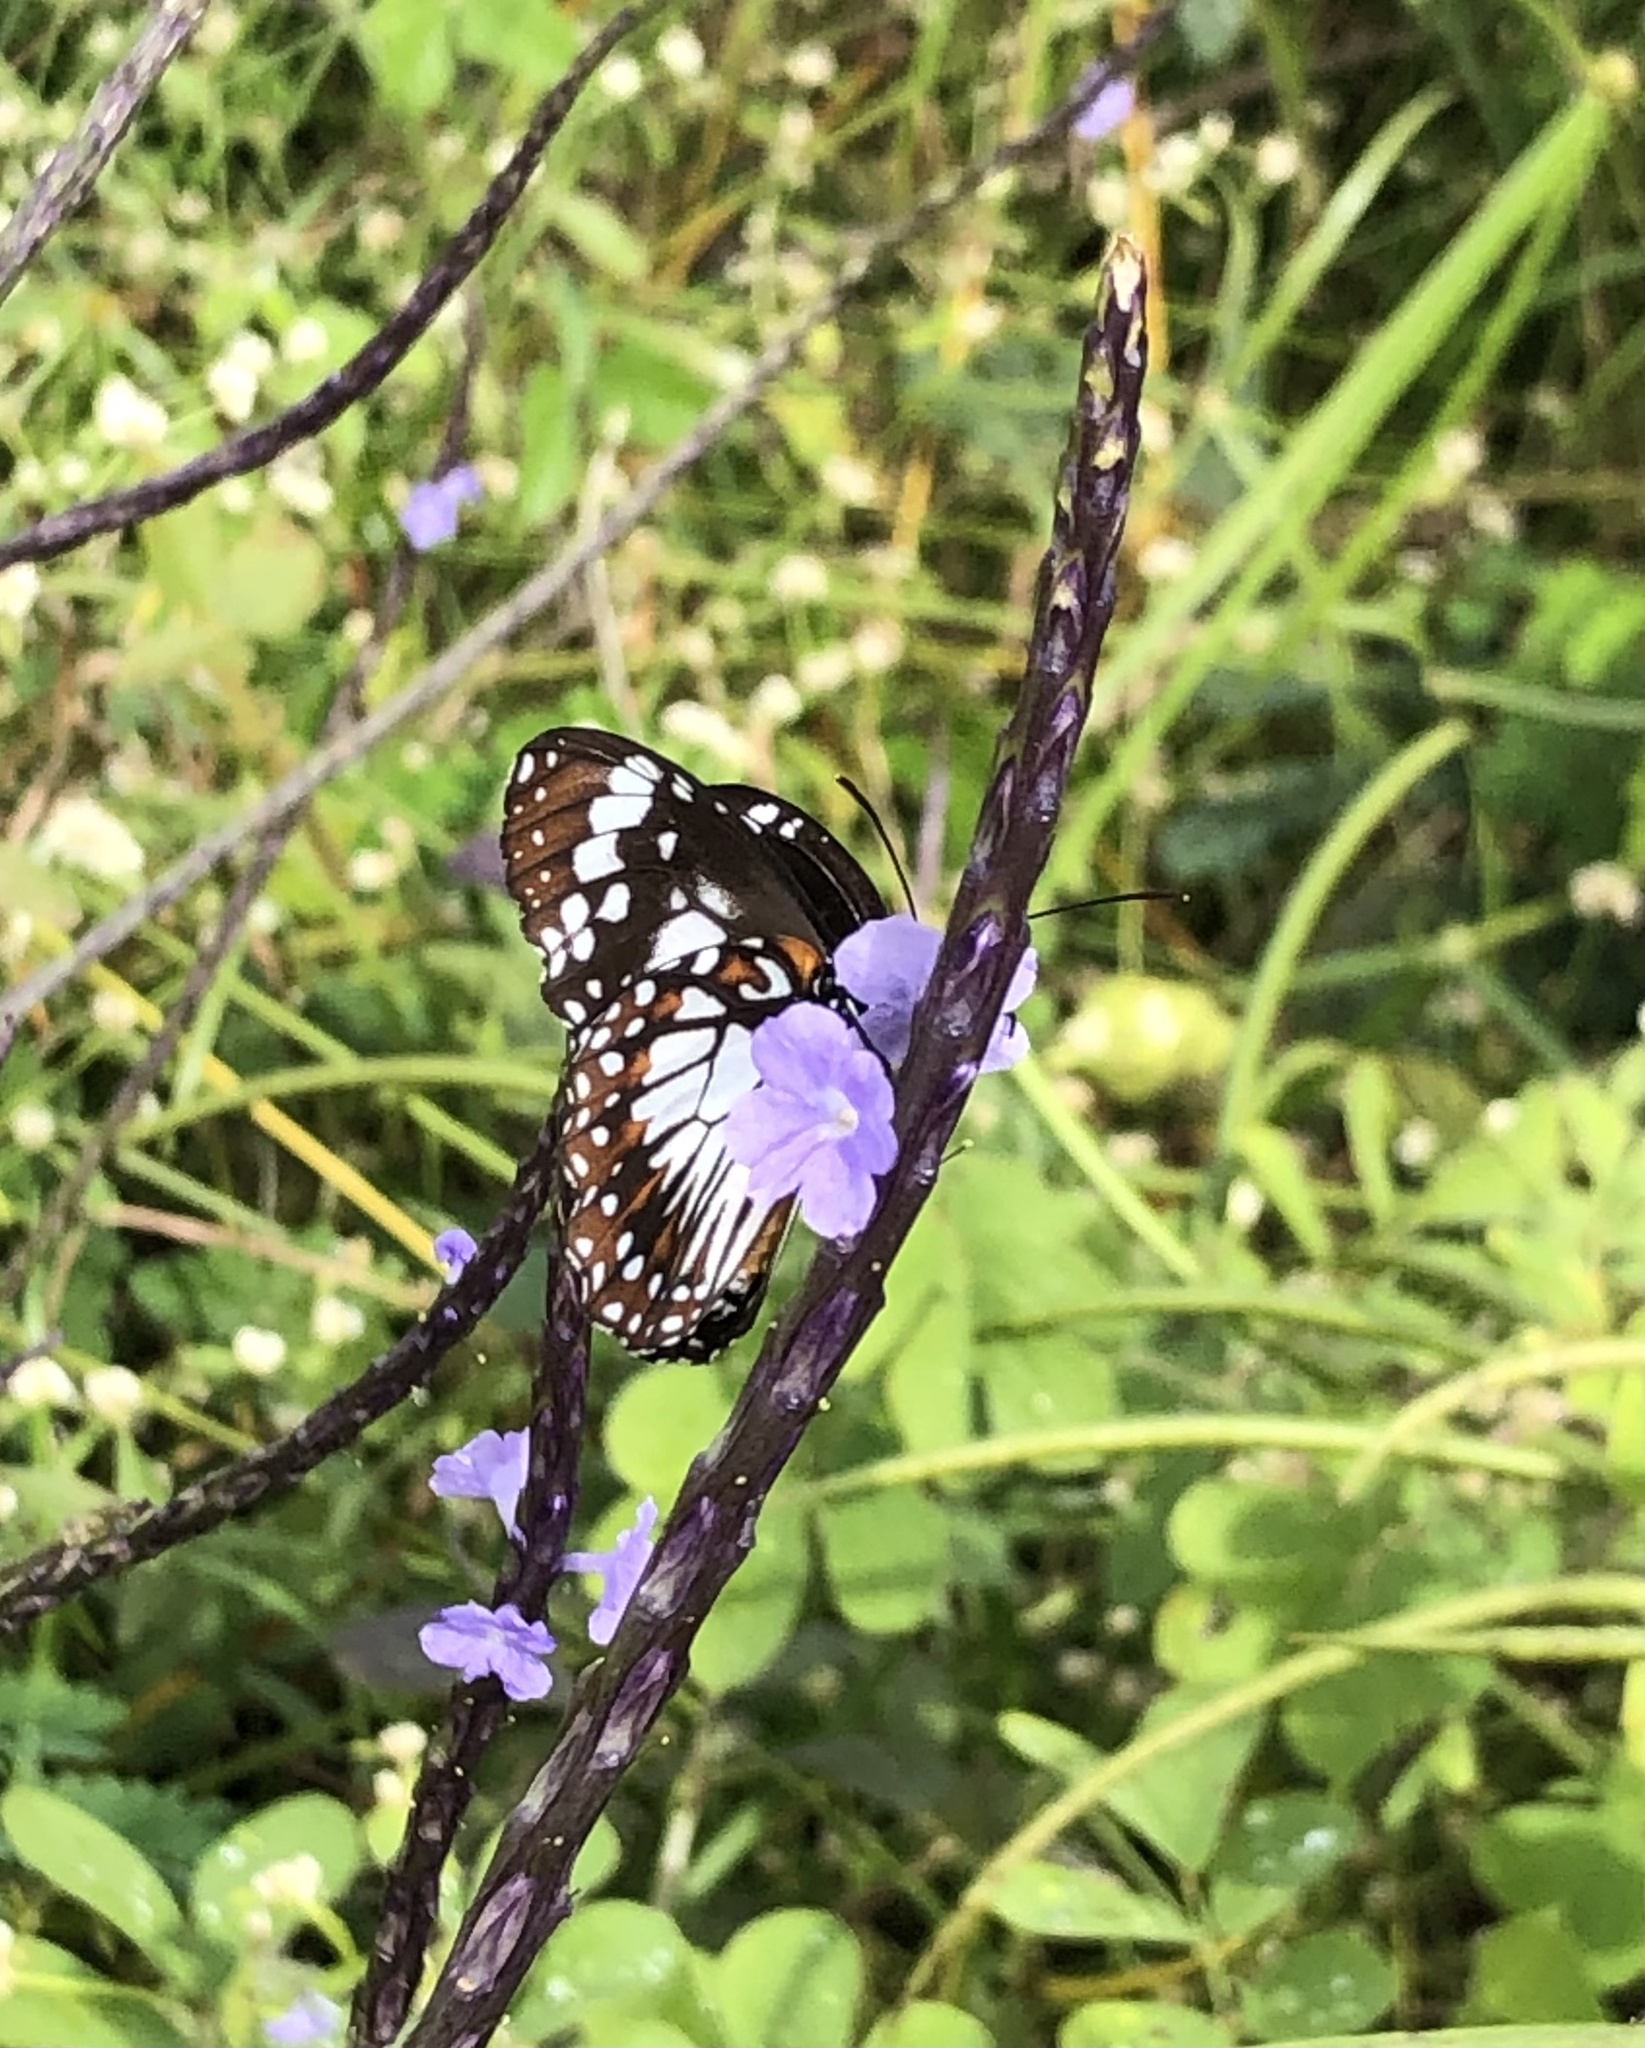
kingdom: Animalia
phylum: Arthropoda
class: Insecta
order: Lepidoptera
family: Nymphalidae
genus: Danaus
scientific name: Danaus affinis
